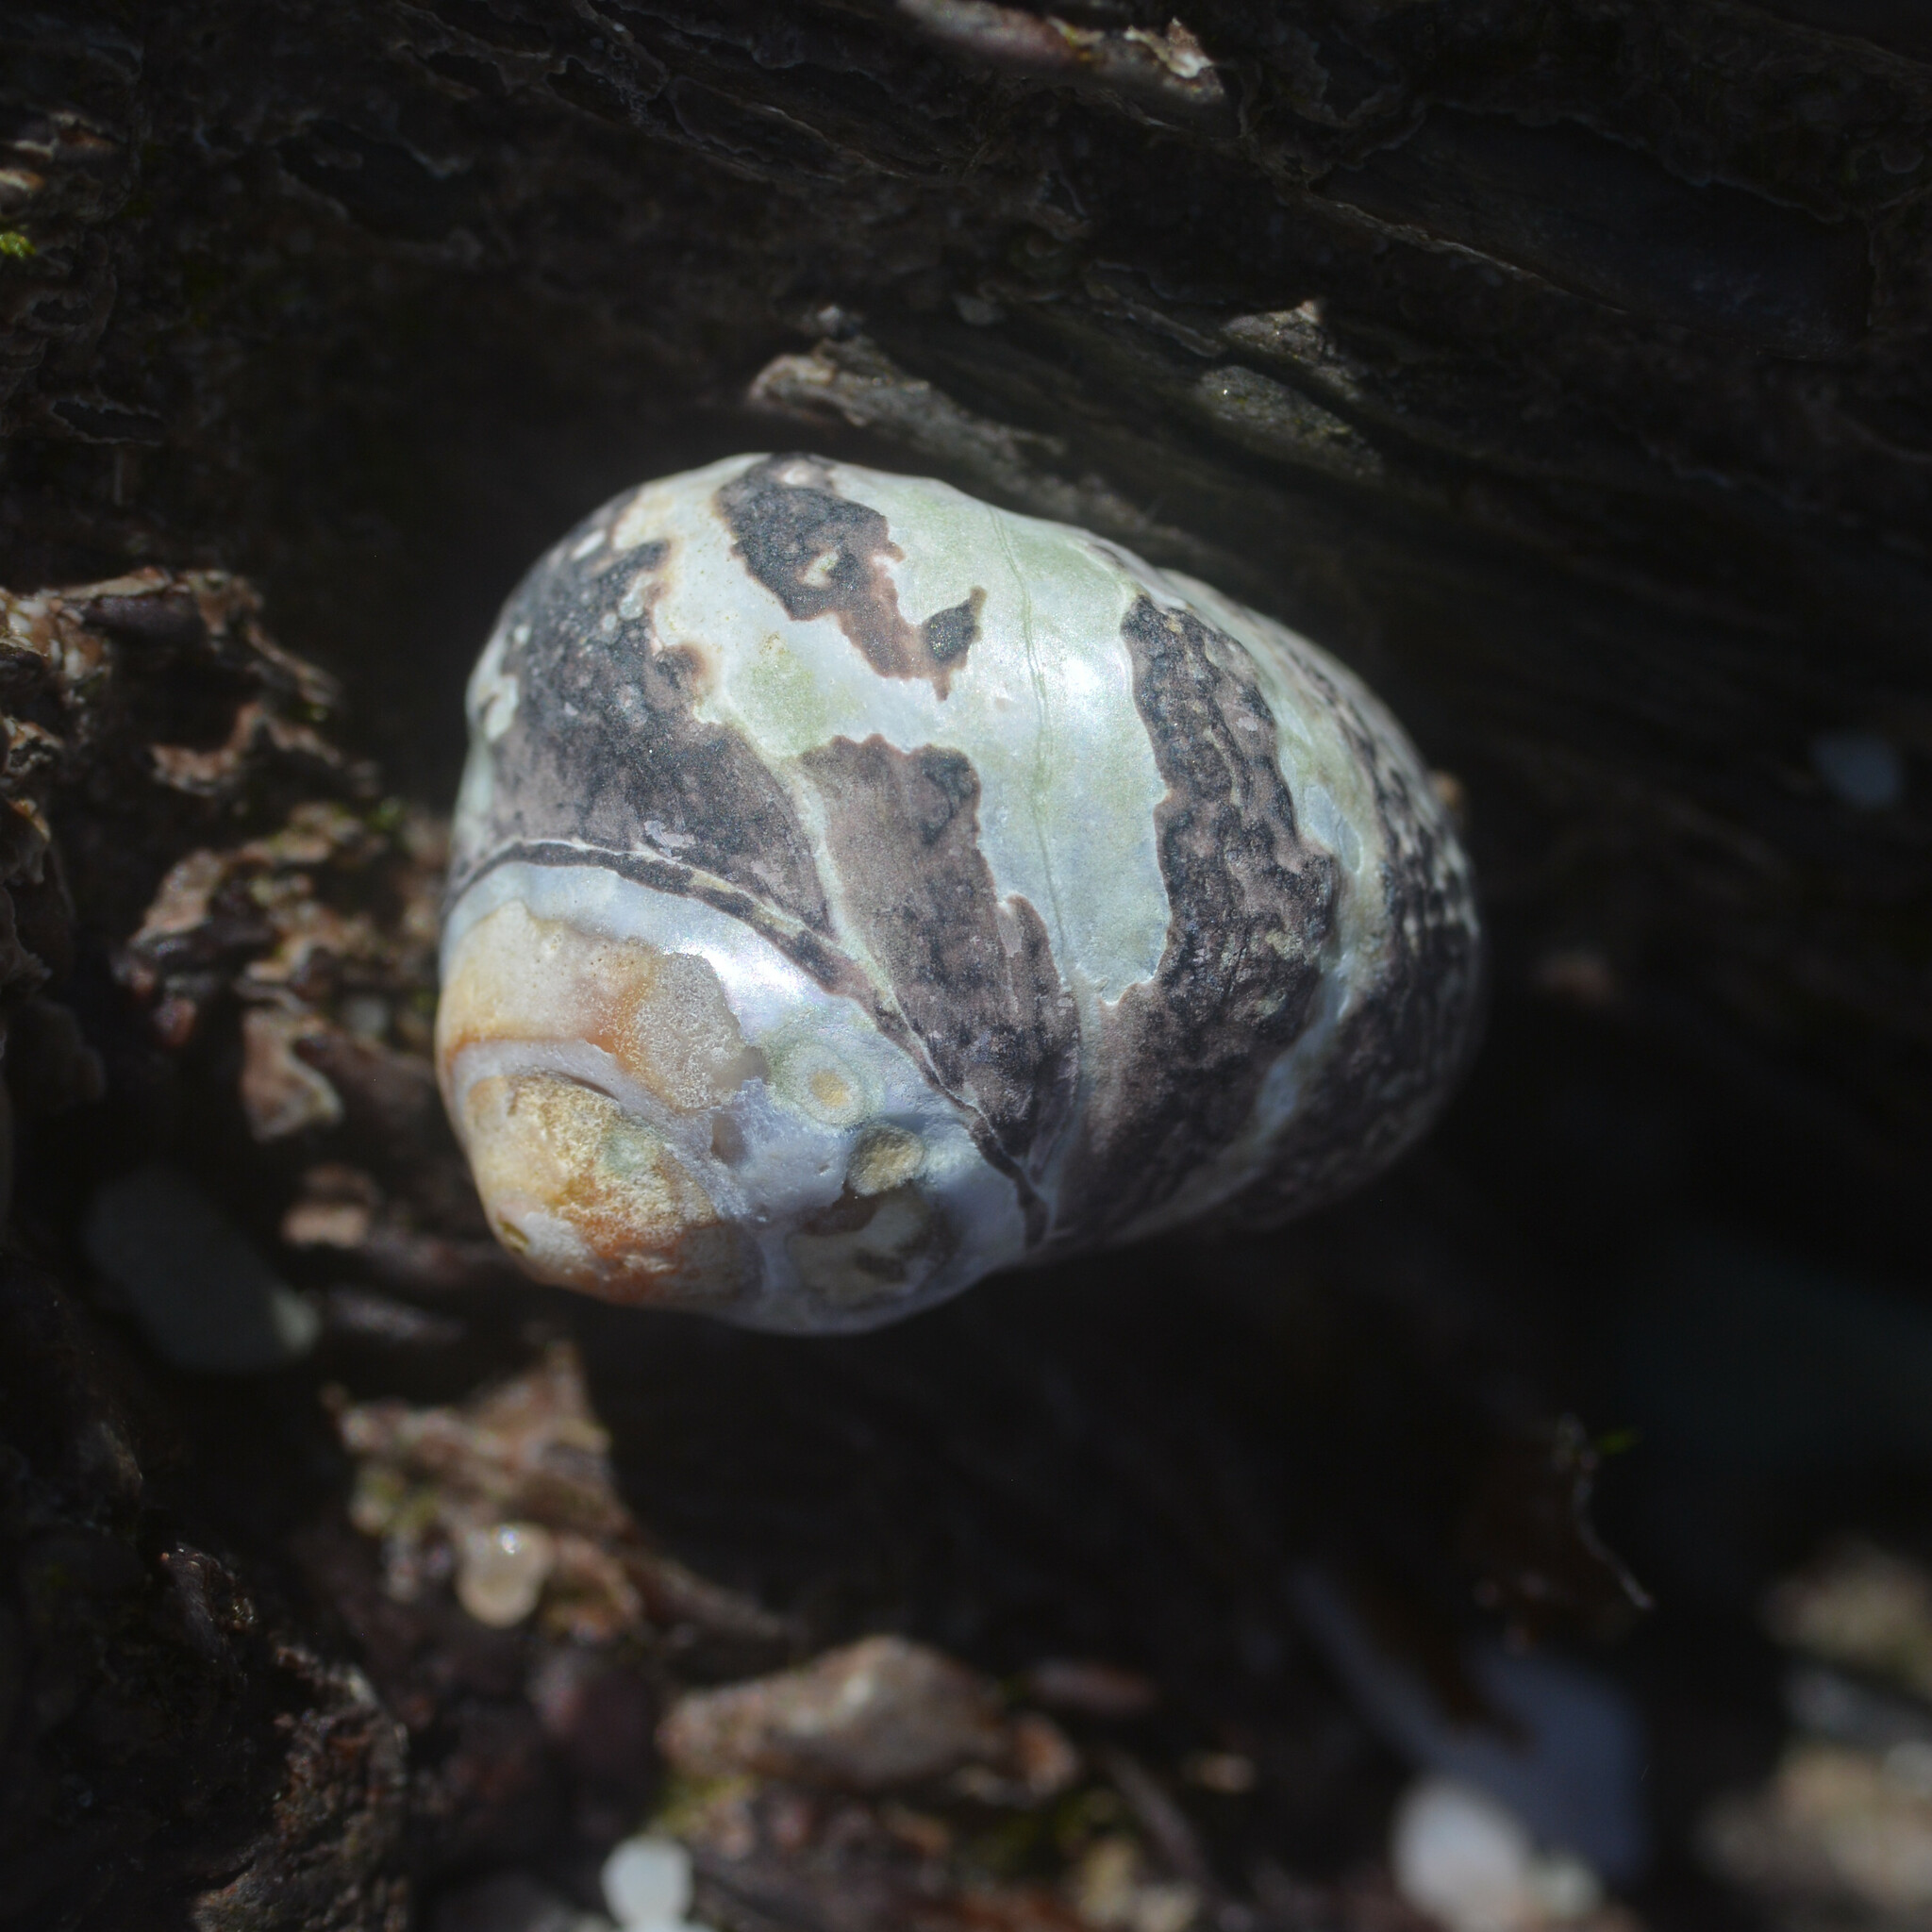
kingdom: Animalia
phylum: Mollusca
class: Gastropoda
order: Trochida
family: Trochidae
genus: Phorcus
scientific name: Phorcus lineatus
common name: Toothed top shell
